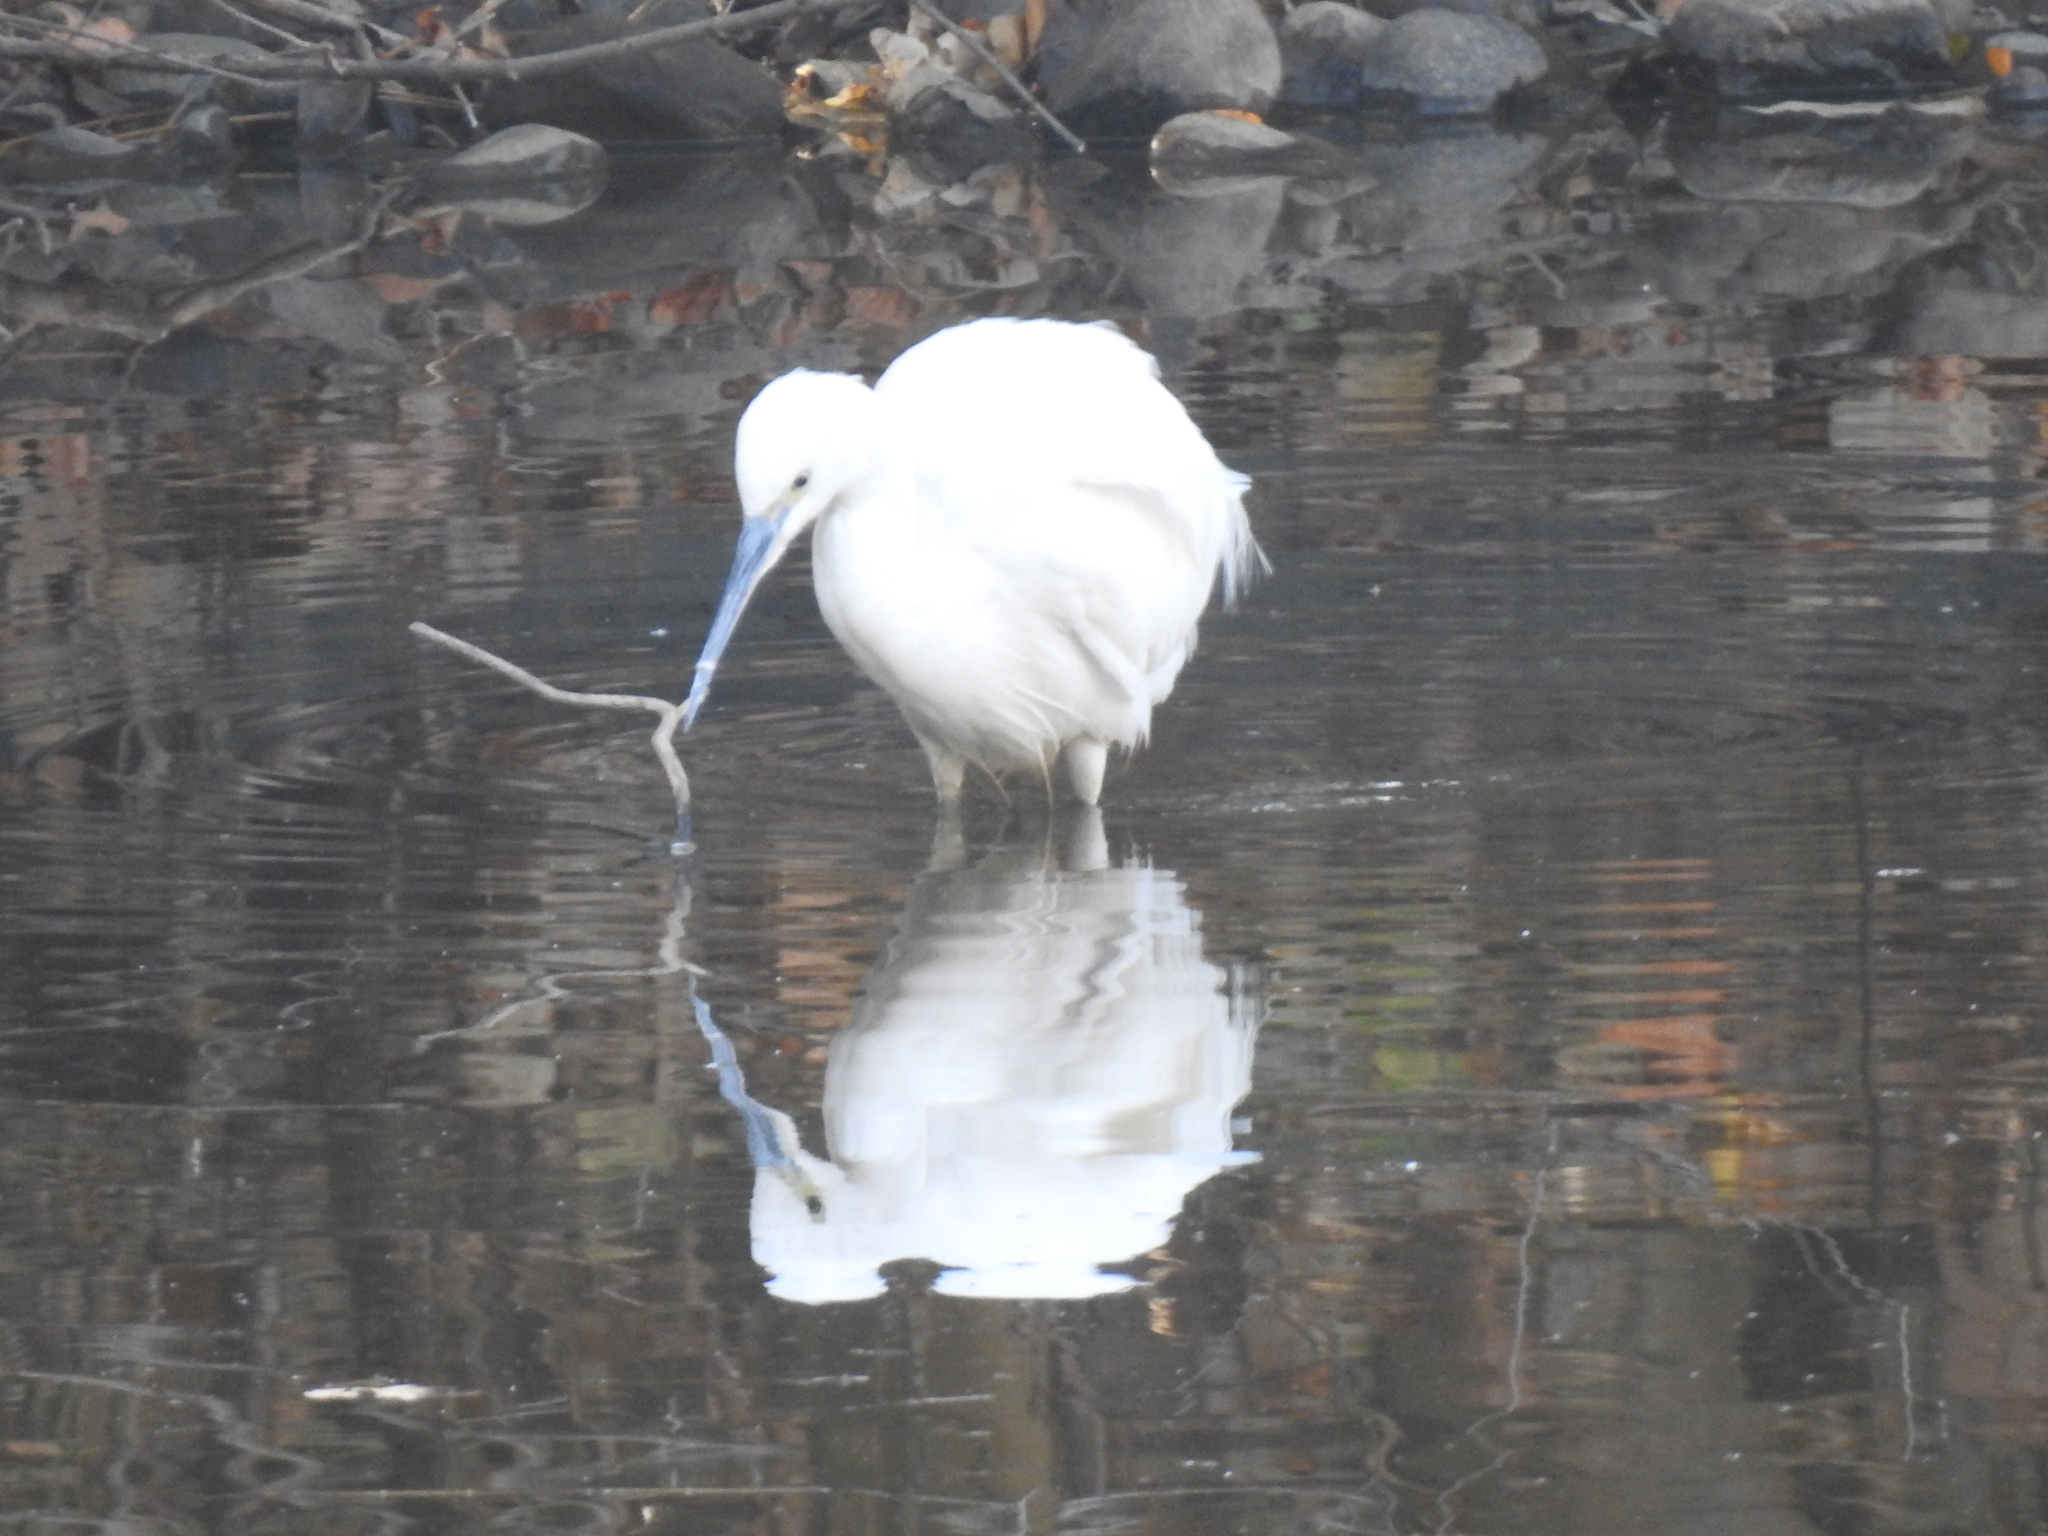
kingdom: Animalia
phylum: Chordata
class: Aves
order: Pelecaniformes
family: Ardeidae
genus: Egretta
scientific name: Egretta garzetta
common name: Little egret
